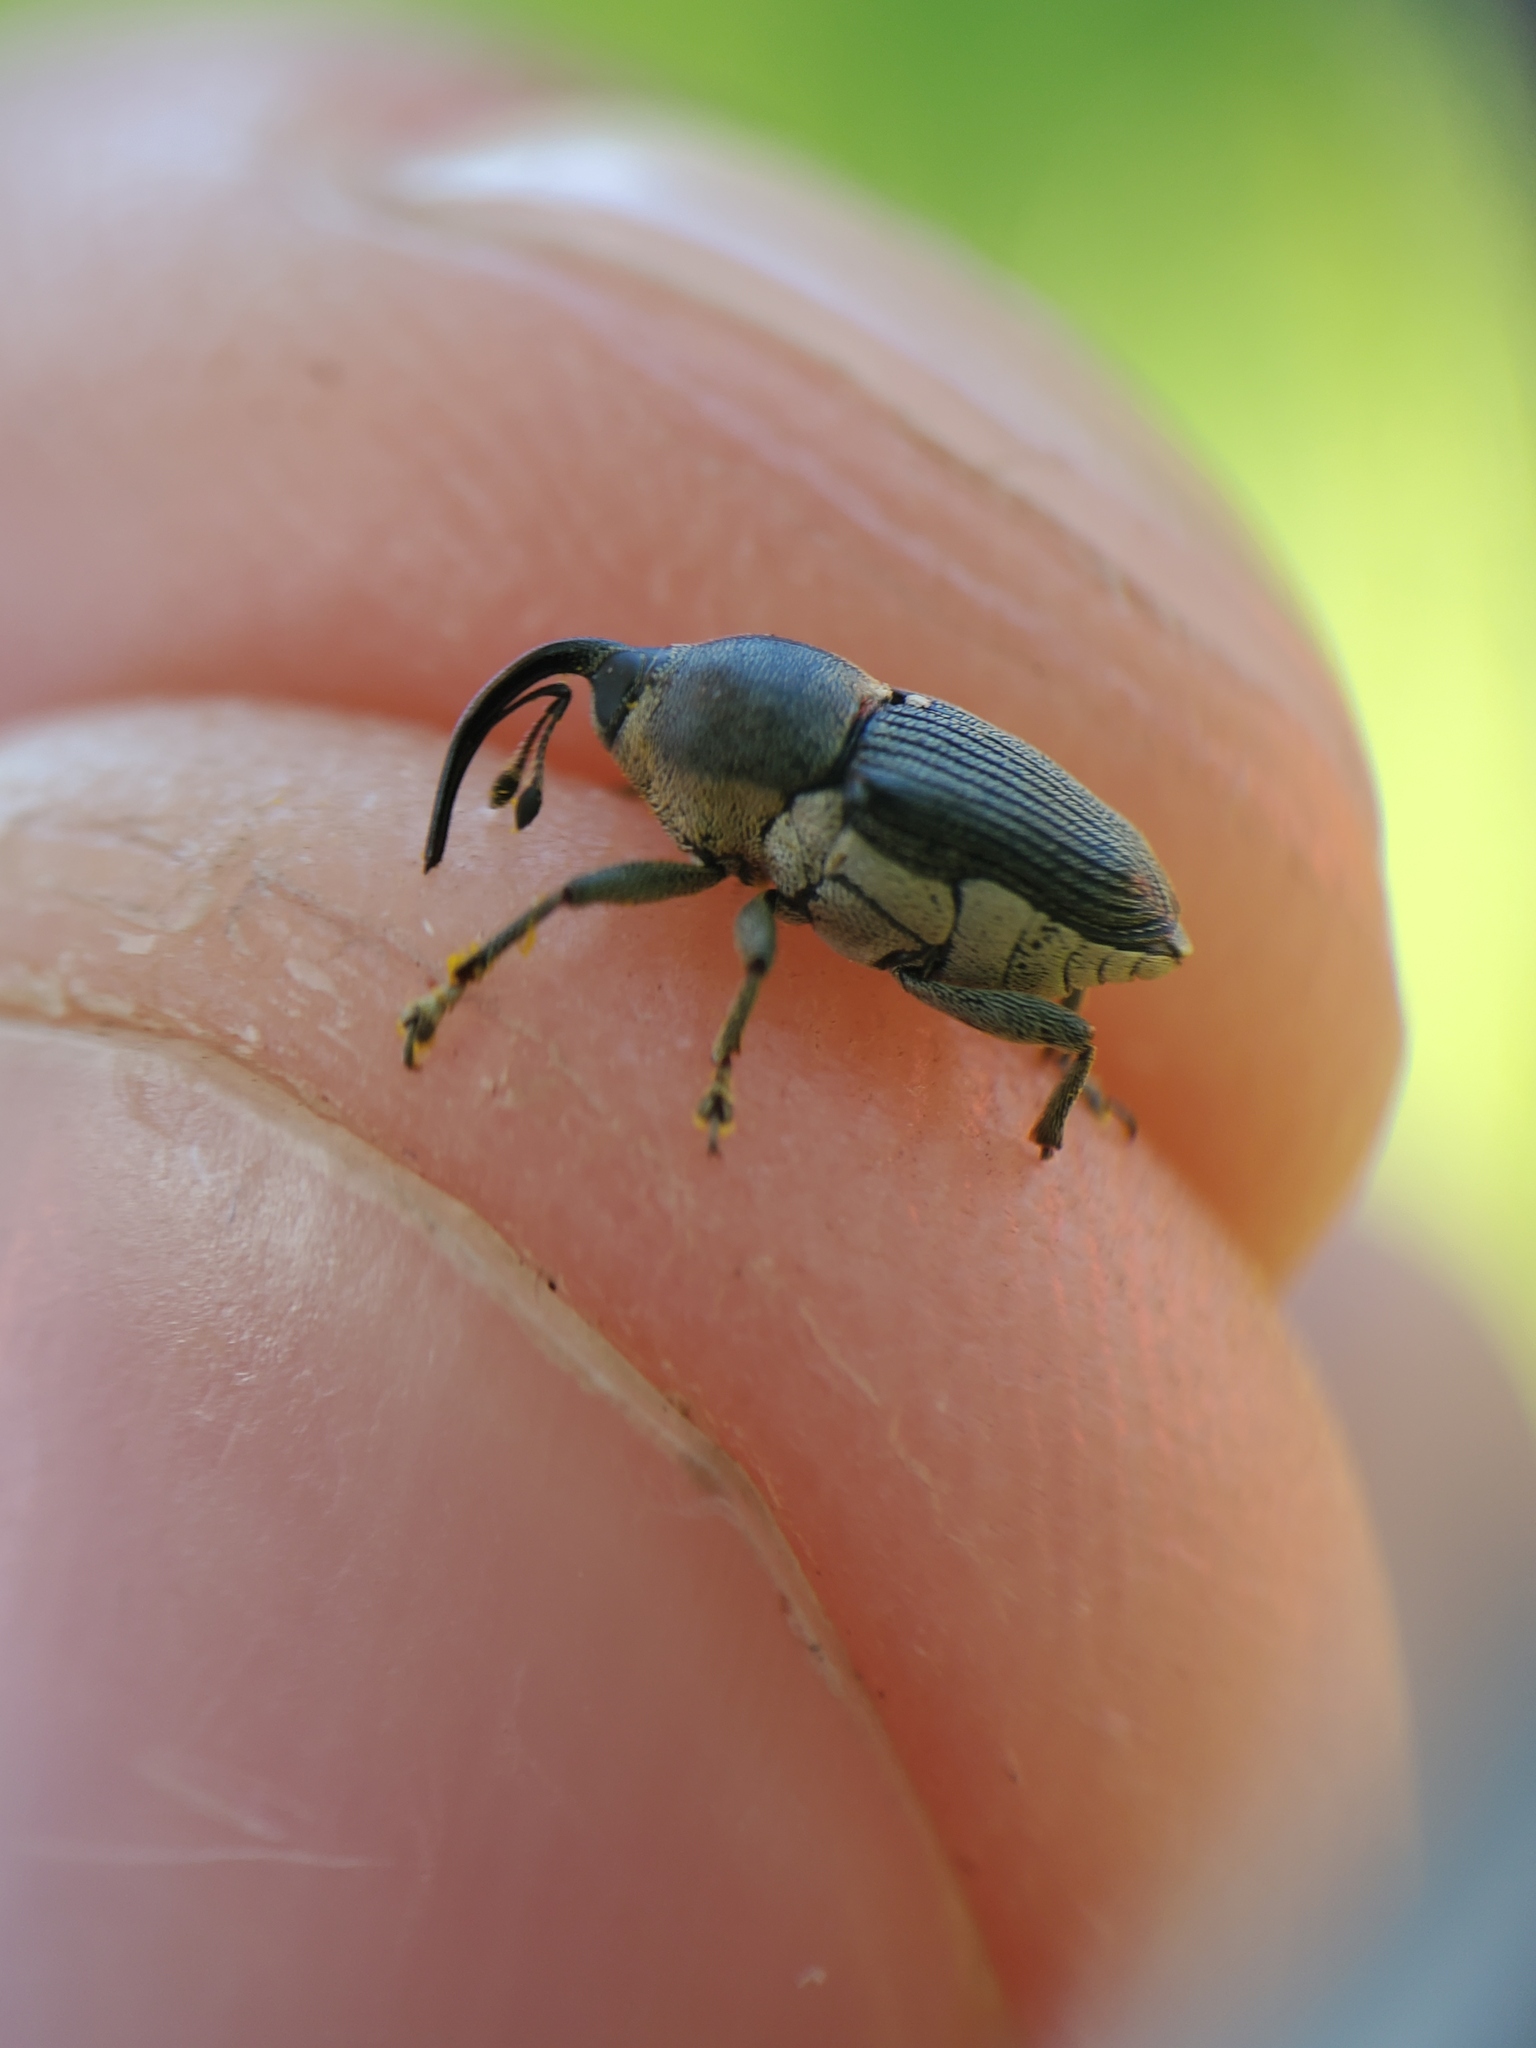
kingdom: Animalia
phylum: Arthropoda
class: Insecta
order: Coleoptera
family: Curculionidae
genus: Odontocorynus
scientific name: Odontocorynus salebrosus
